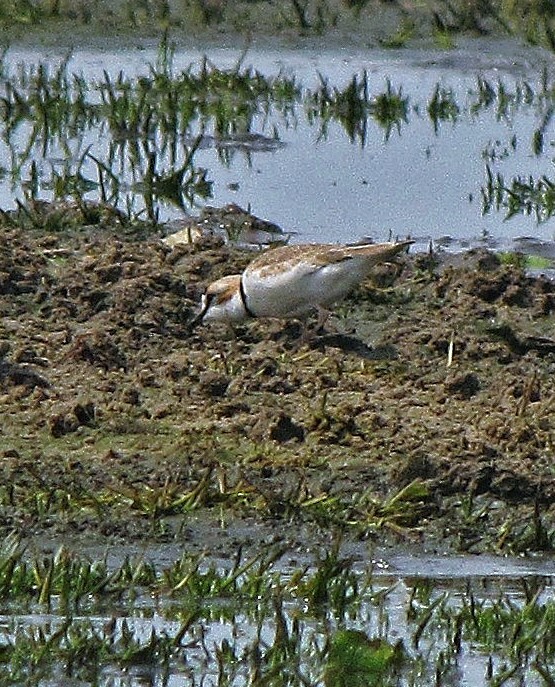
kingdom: Animalia
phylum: Chordata
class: Aves
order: Charadriiformes
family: Charadriidae
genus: Anarhynchus
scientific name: Anarhynchus
